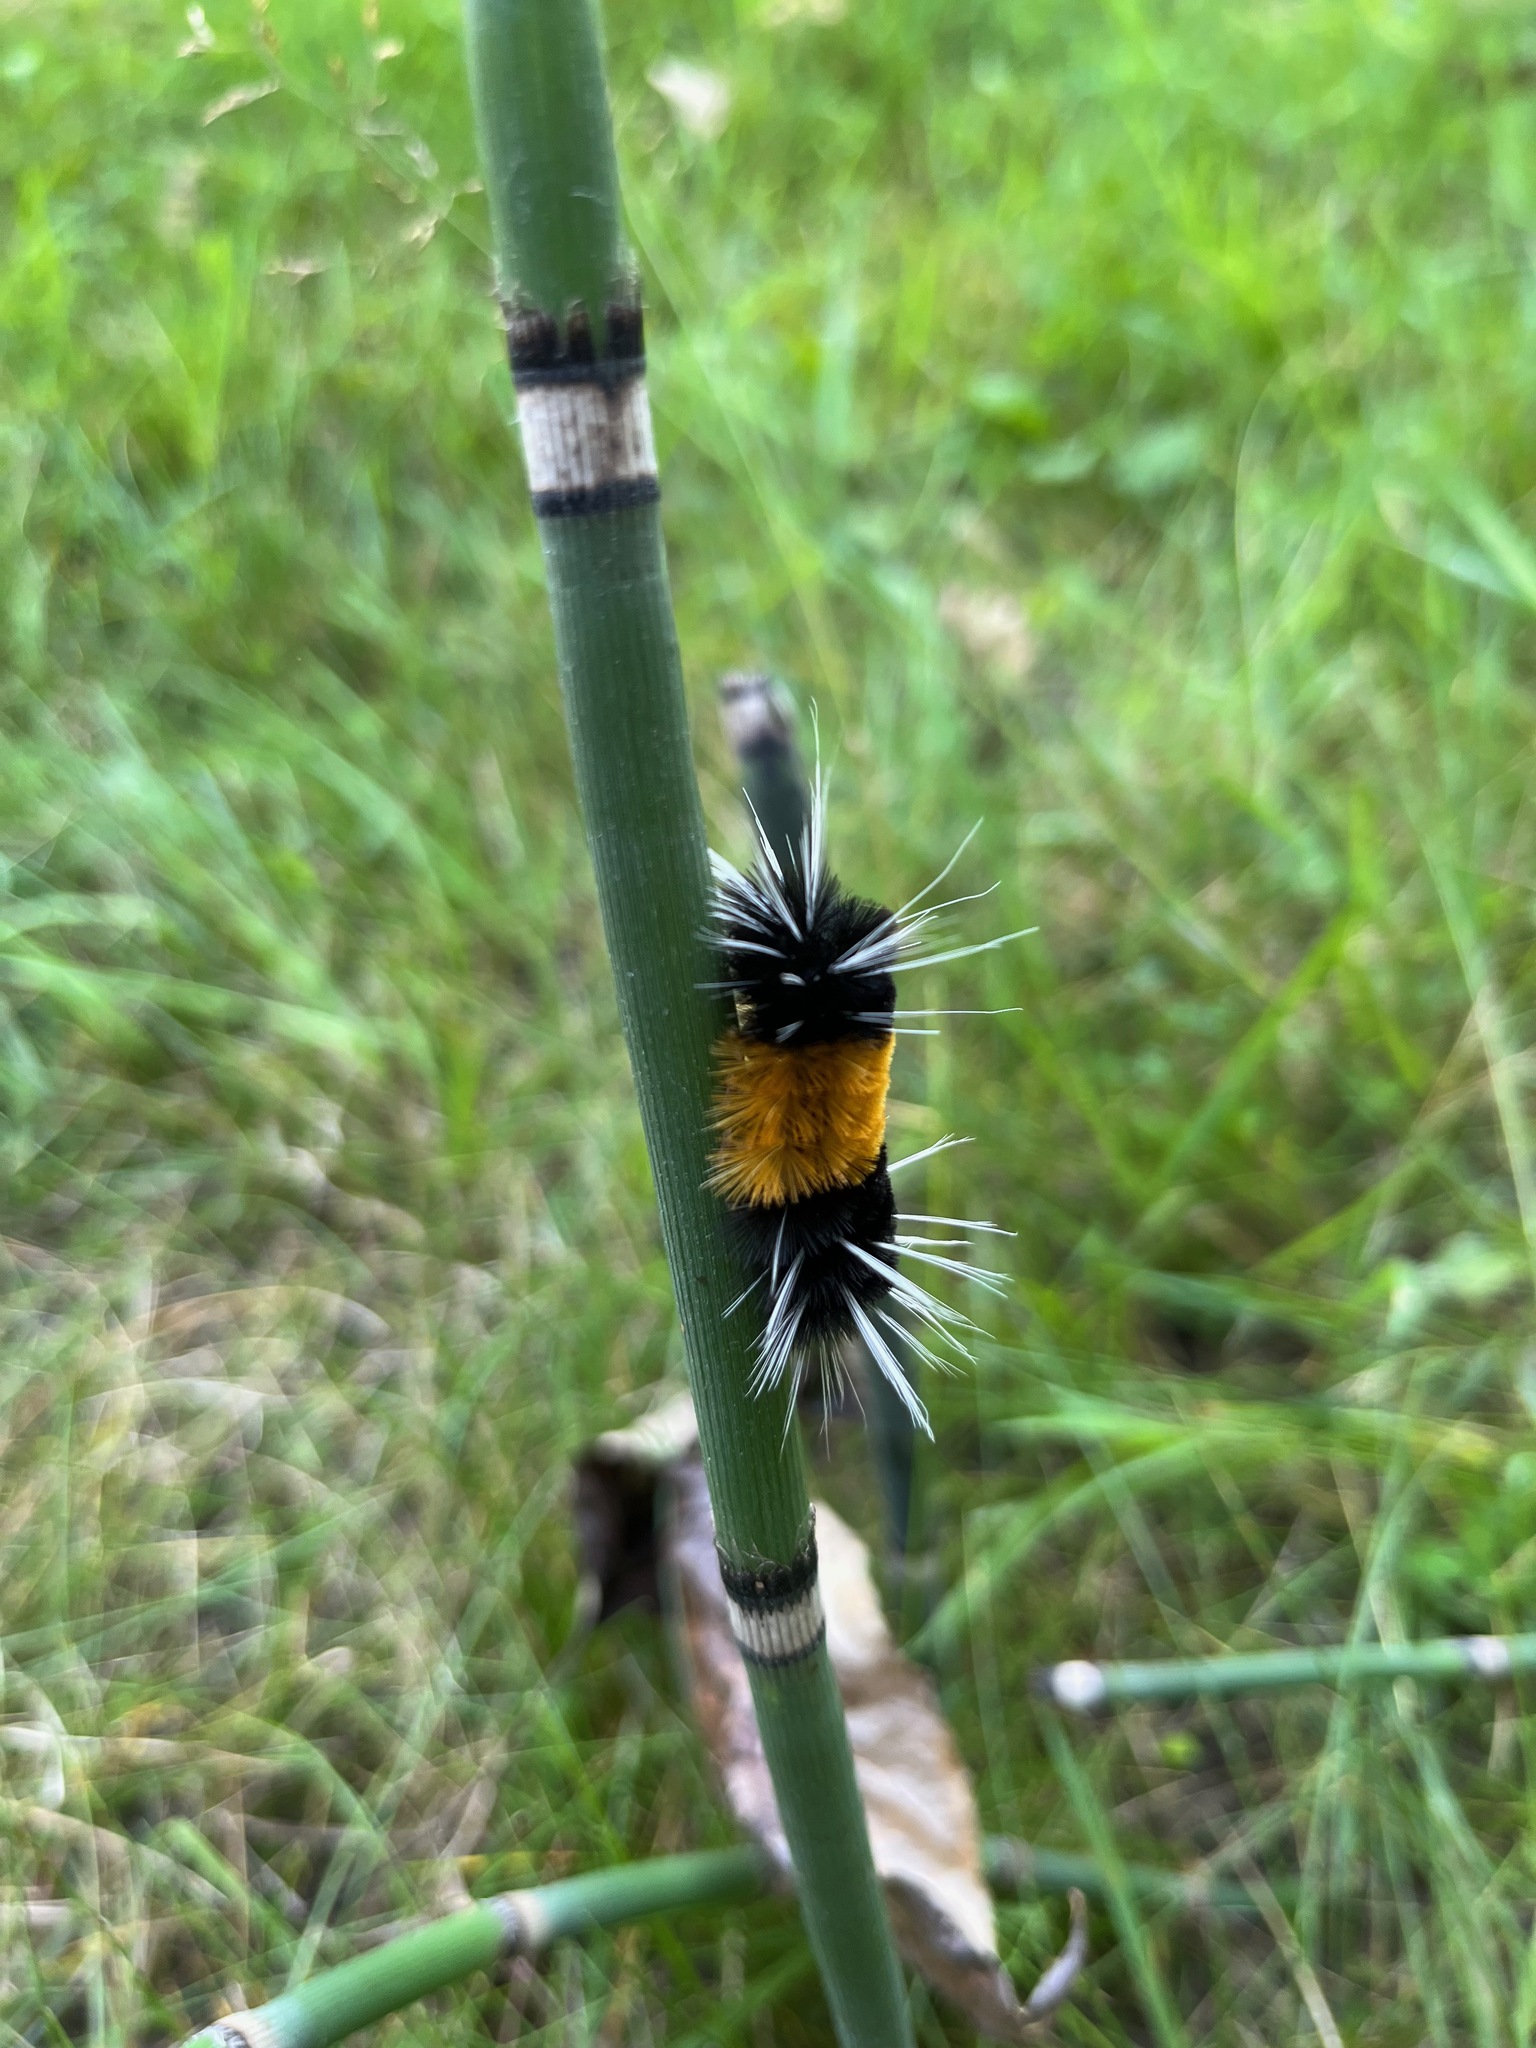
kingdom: Animalia
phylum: Arthropoda
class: Insecta
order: Lepidoptera
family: Erebidae
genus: Lophocampa
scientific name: Lophocampa maculata
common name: Spotted tussock moth
